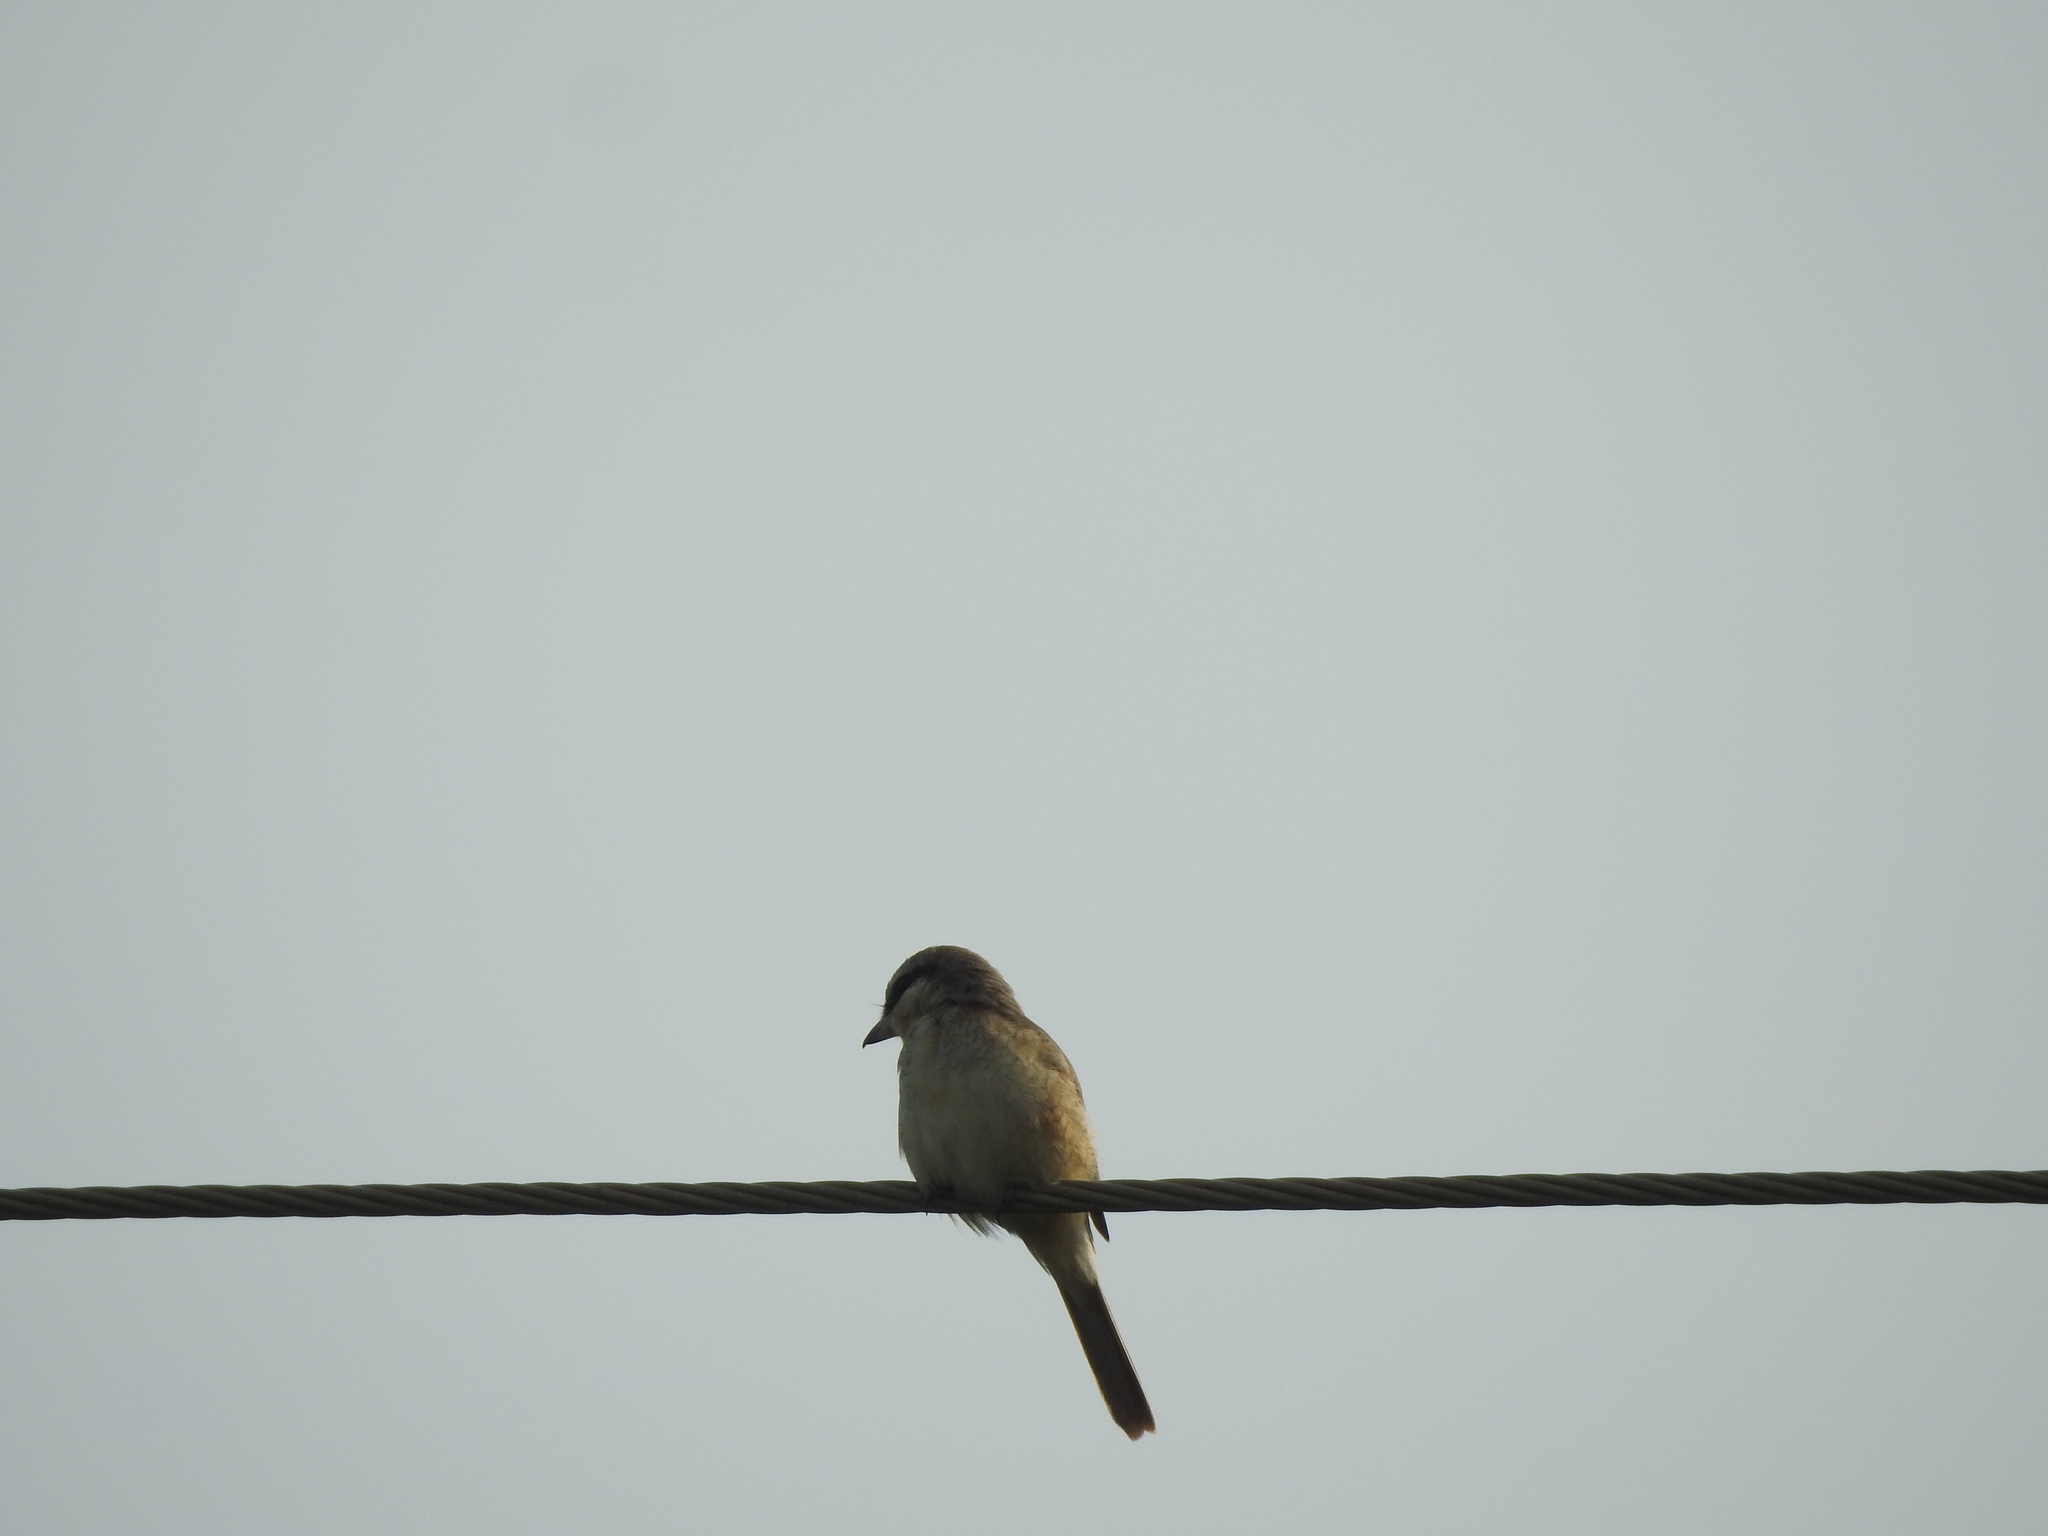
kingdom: Animalia
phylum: Chordata
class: Aves
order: Passeriformes
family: Laniidae
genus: Lanius
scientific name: Lanius cristatus
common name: Brown shrike
